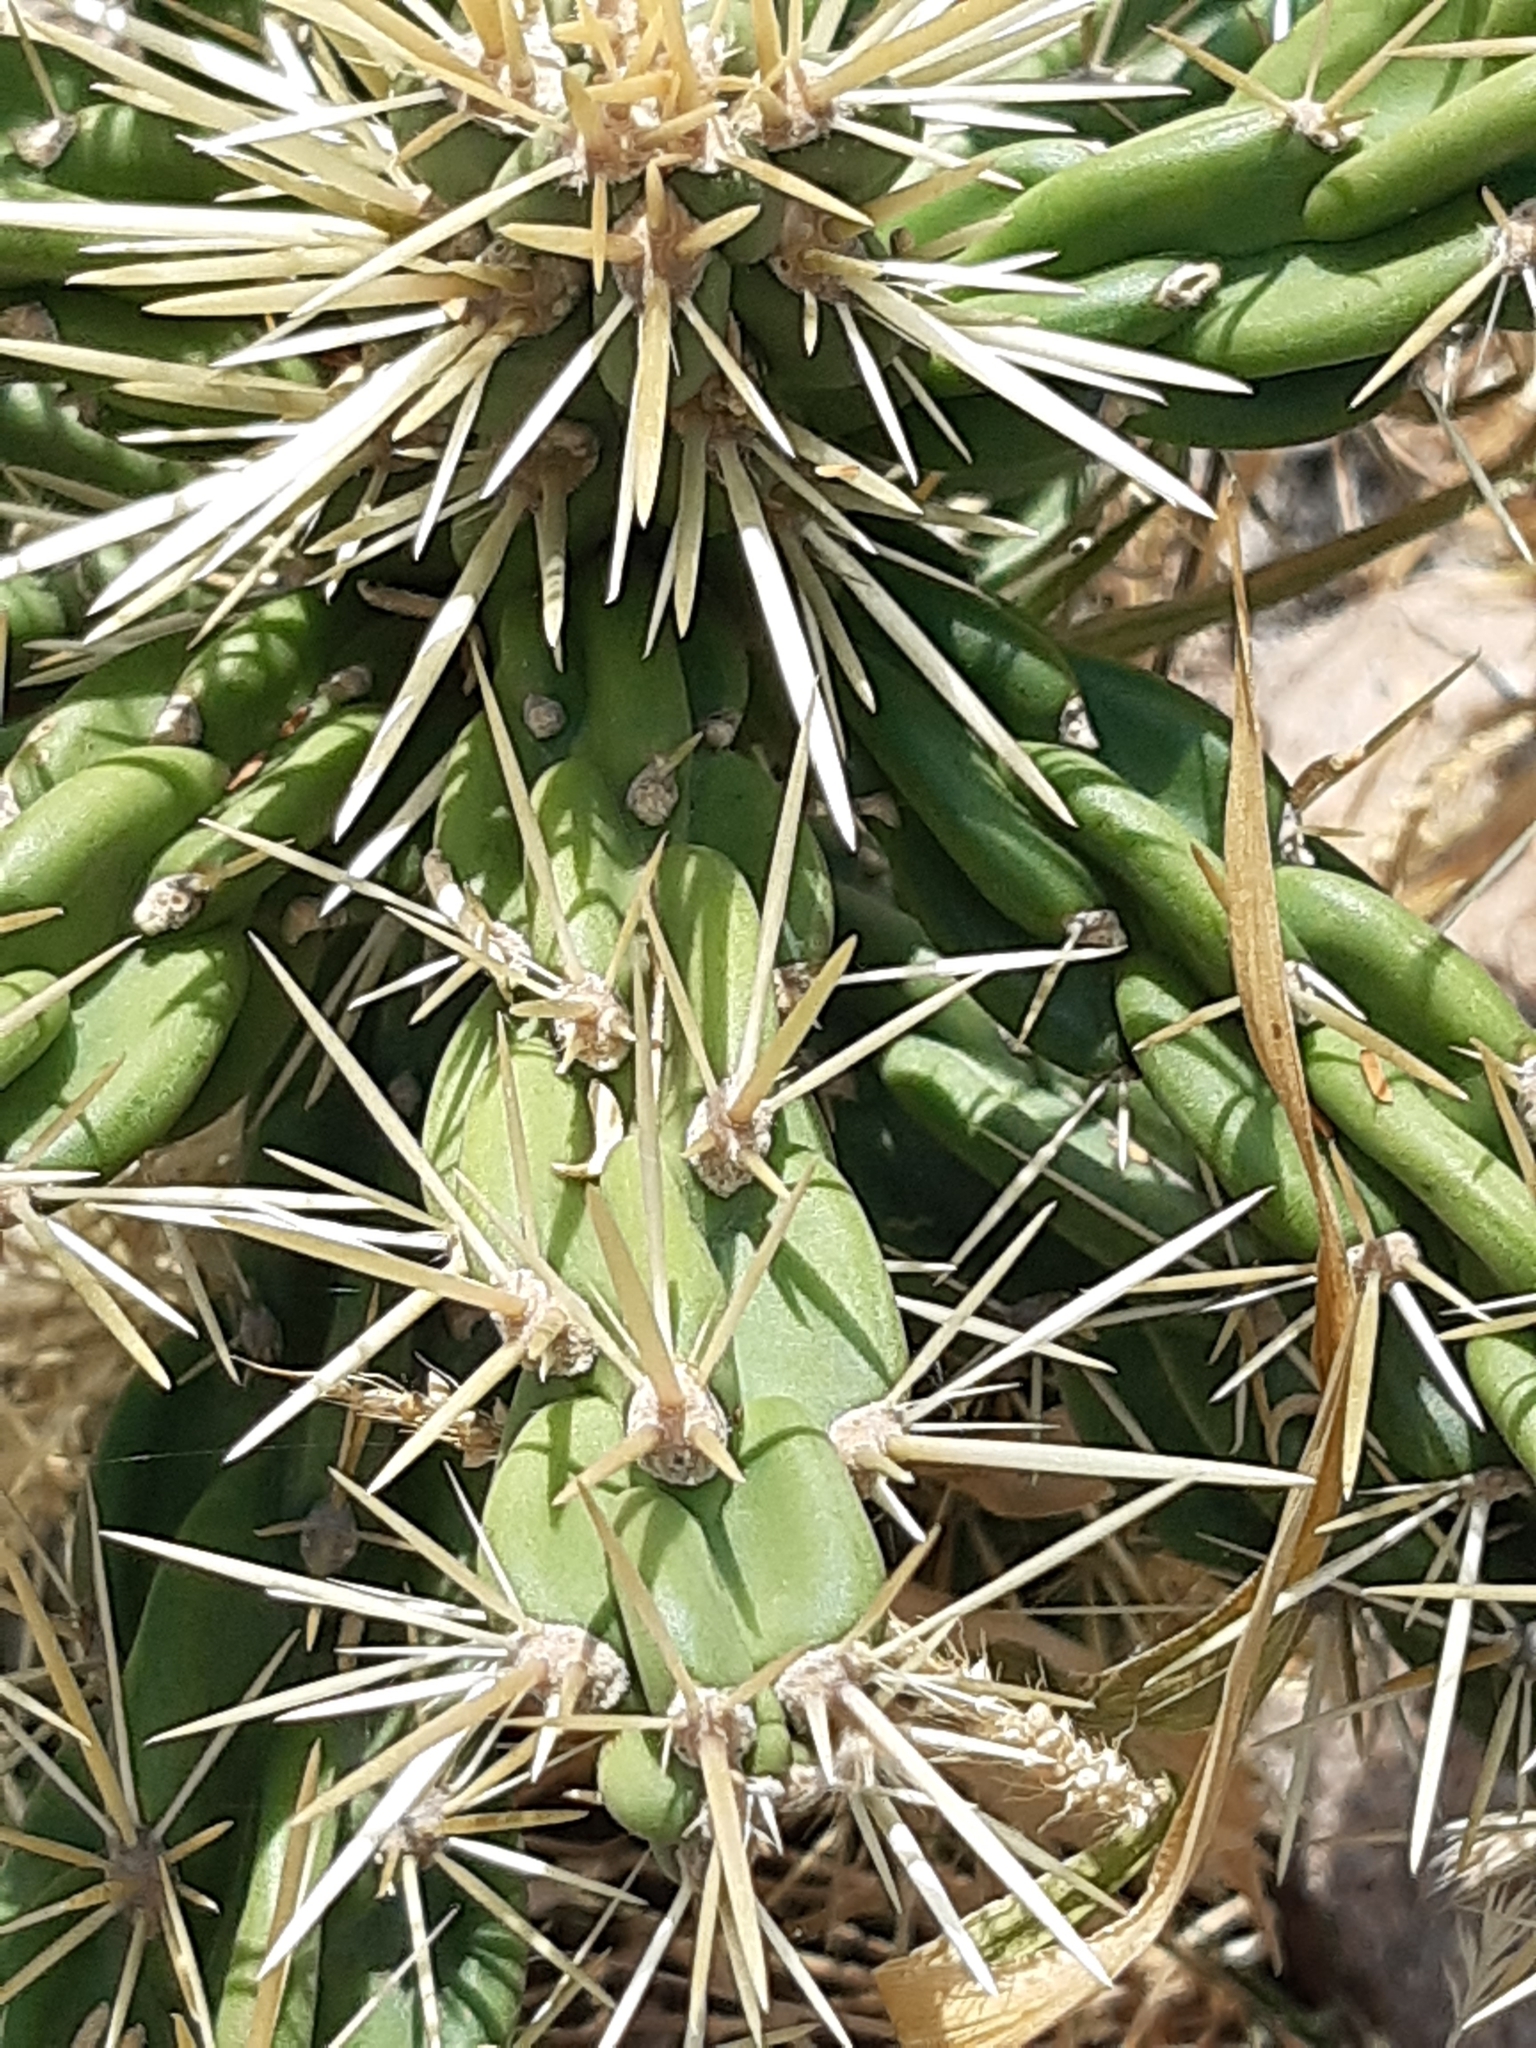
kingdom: Plantae
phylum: Tracheophyta
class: Magnoliopsida
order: Caryophyllales
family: Cactaceae
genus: Cylindropuntia
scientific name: Cylindropuntia imbricata
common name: Candelabrum cactus
